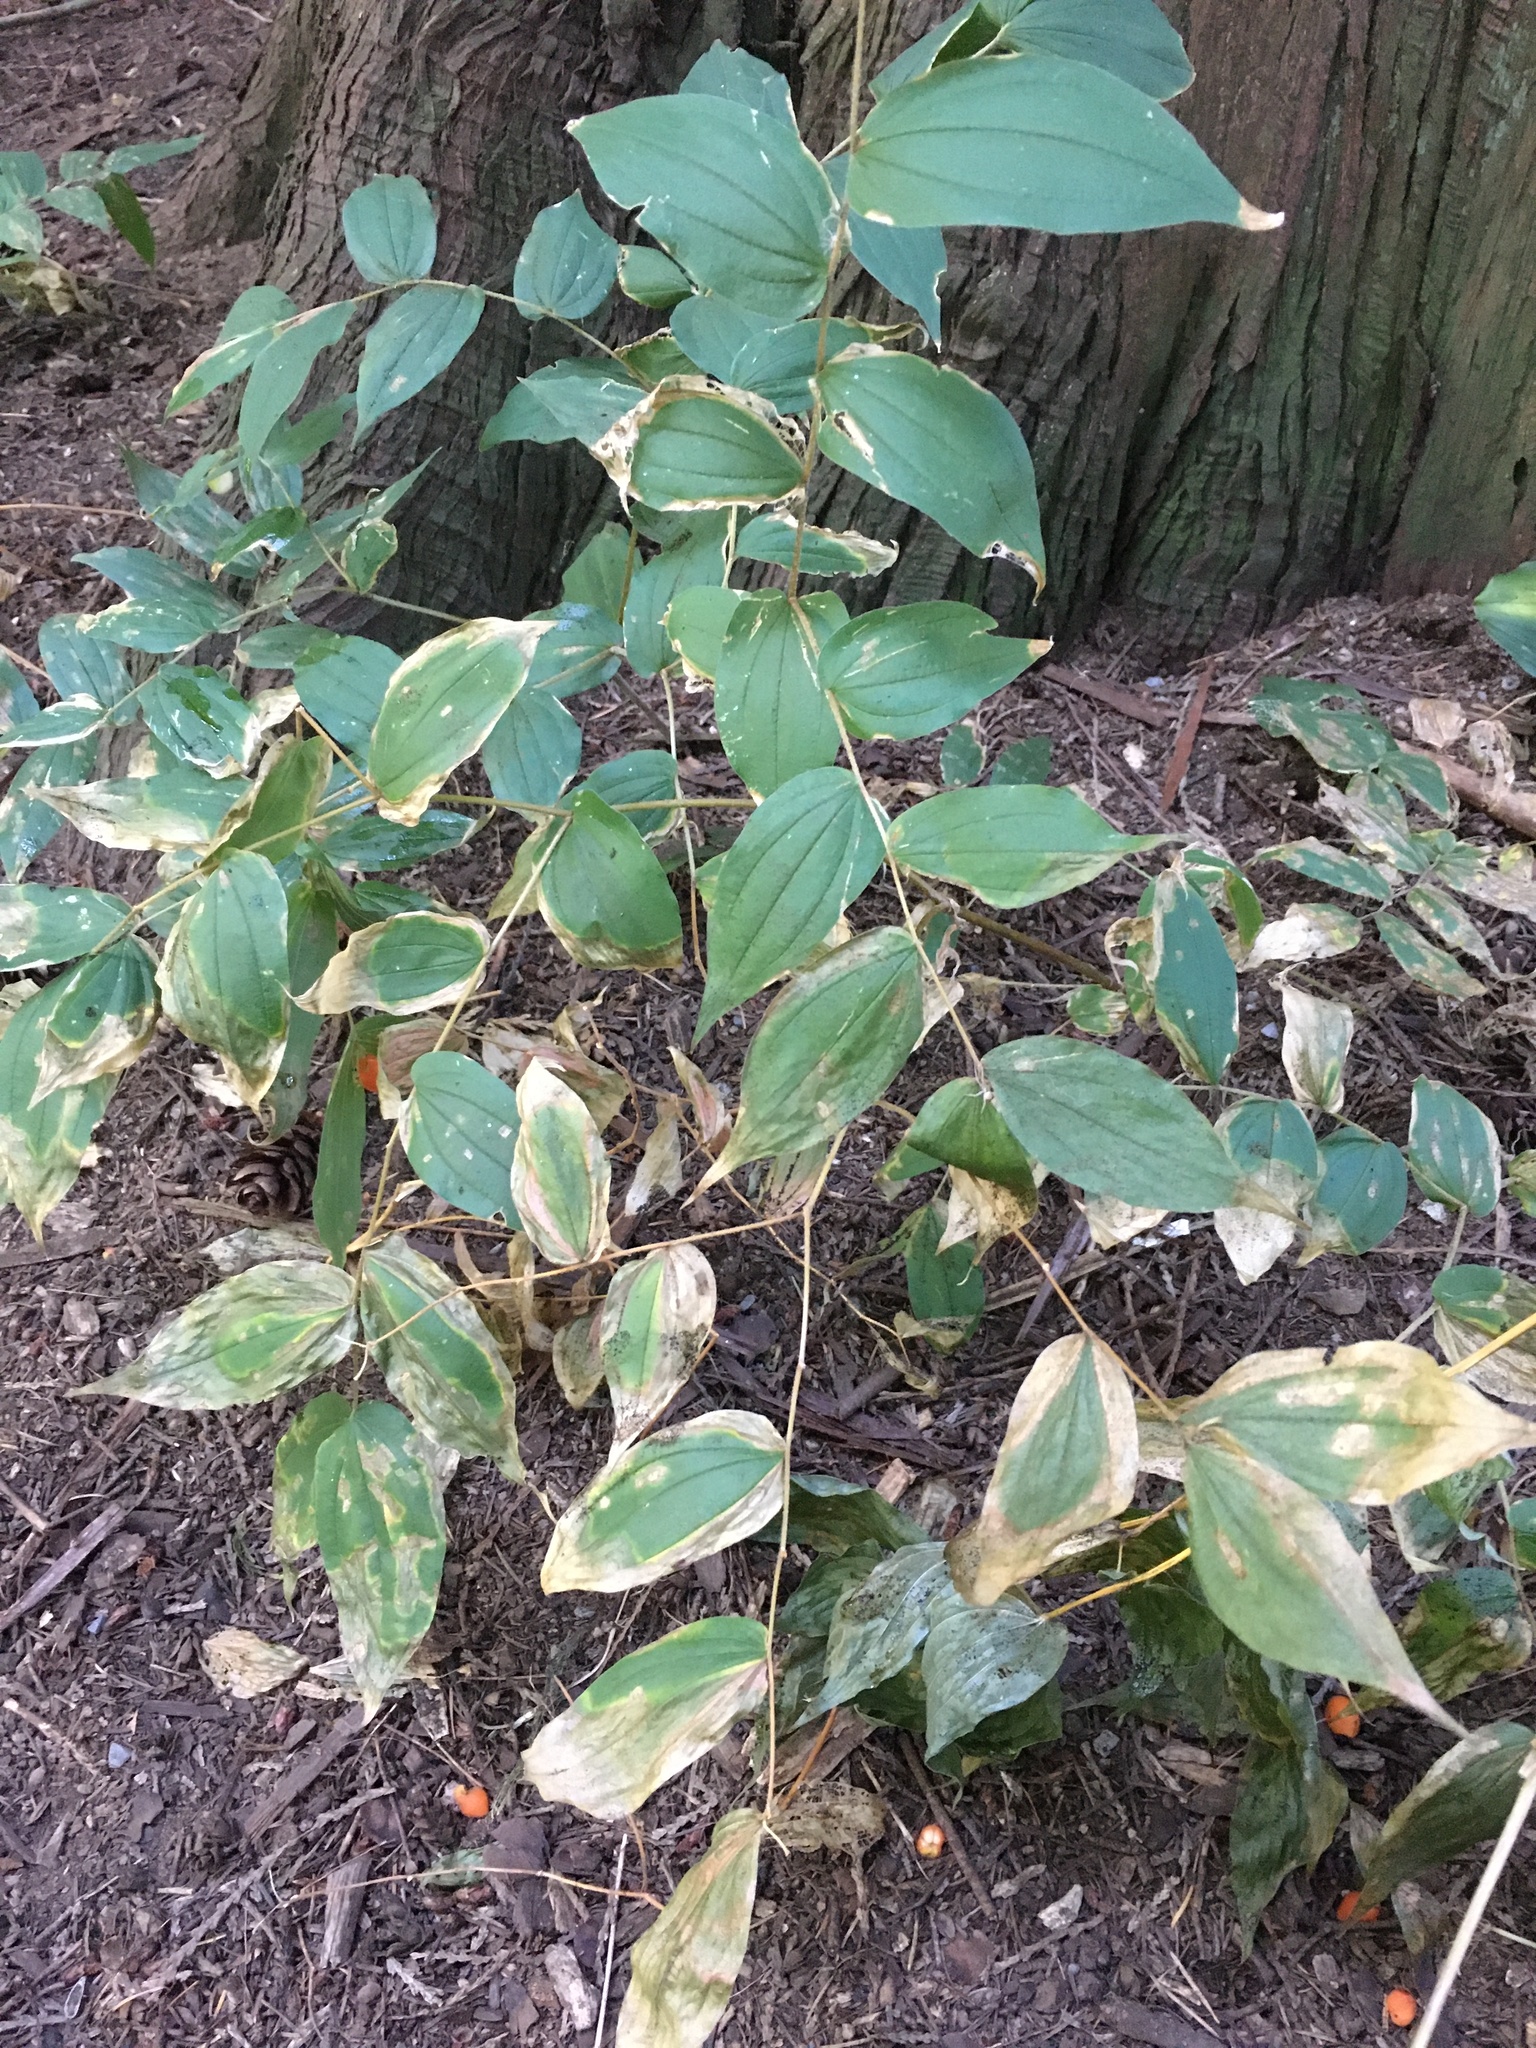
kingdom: Plantae
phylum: Tracheophyta
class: Liliopsida
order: Liliales
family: Liliaceae
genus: Prosartes
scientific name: Prosartes hookeri
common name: Fairy-bells
